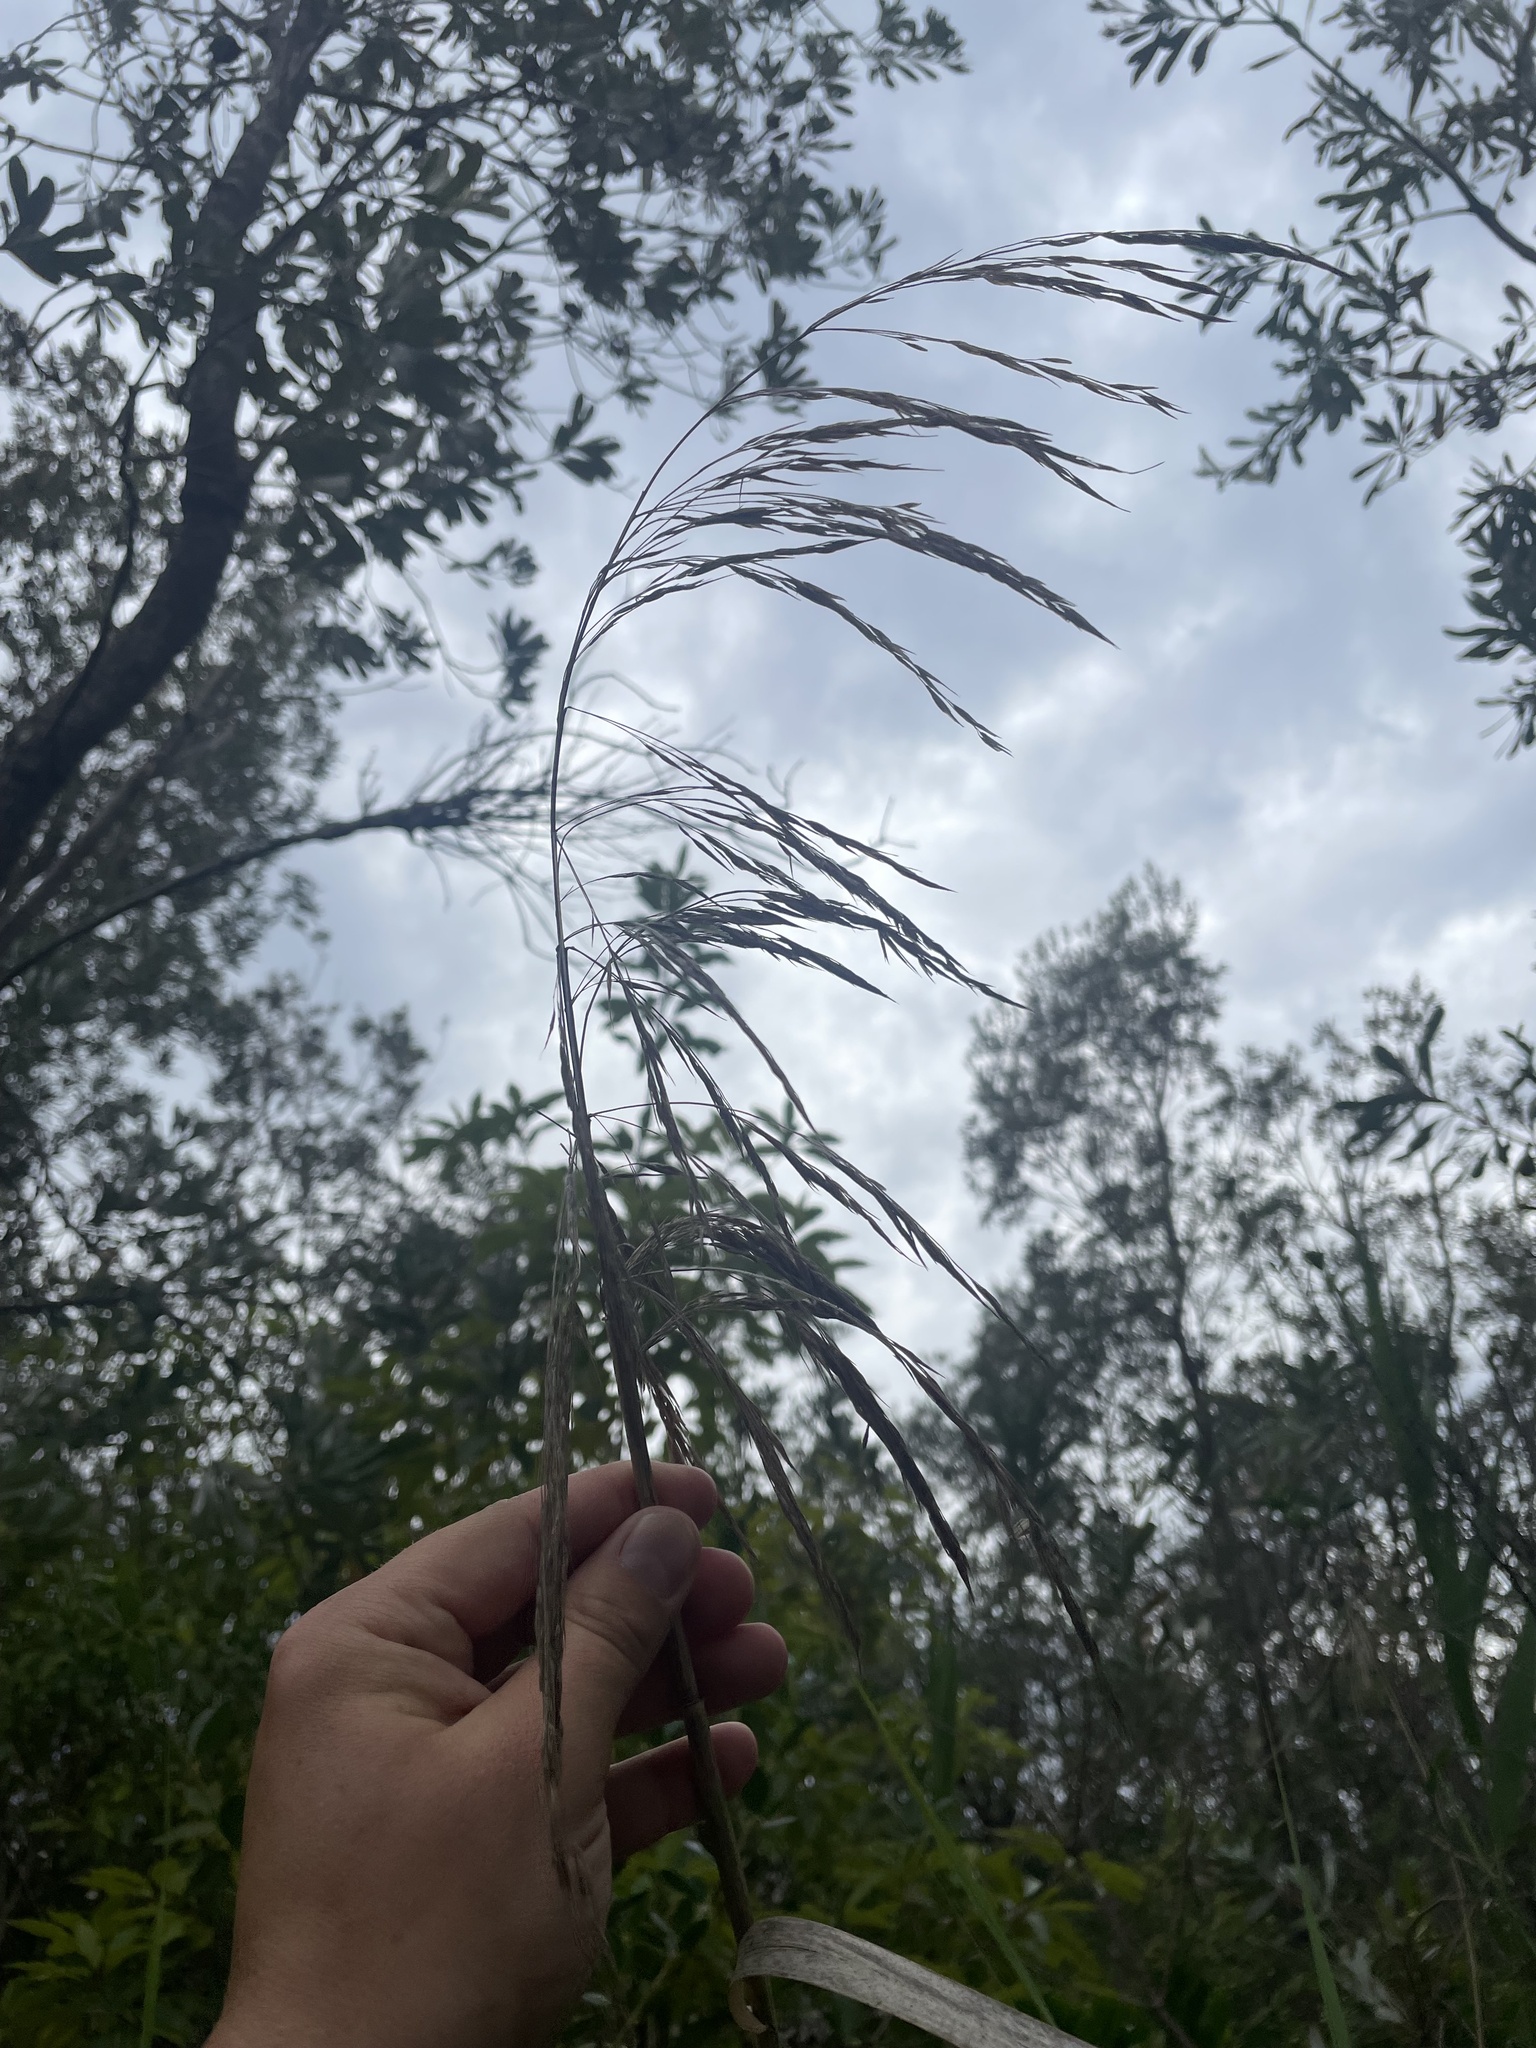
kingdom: Plantae
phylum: Tracheophyta
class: Liliopsida
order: Poales
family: Poaceae
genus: Phragmites
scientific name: Phragmites australis
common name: Common reed
